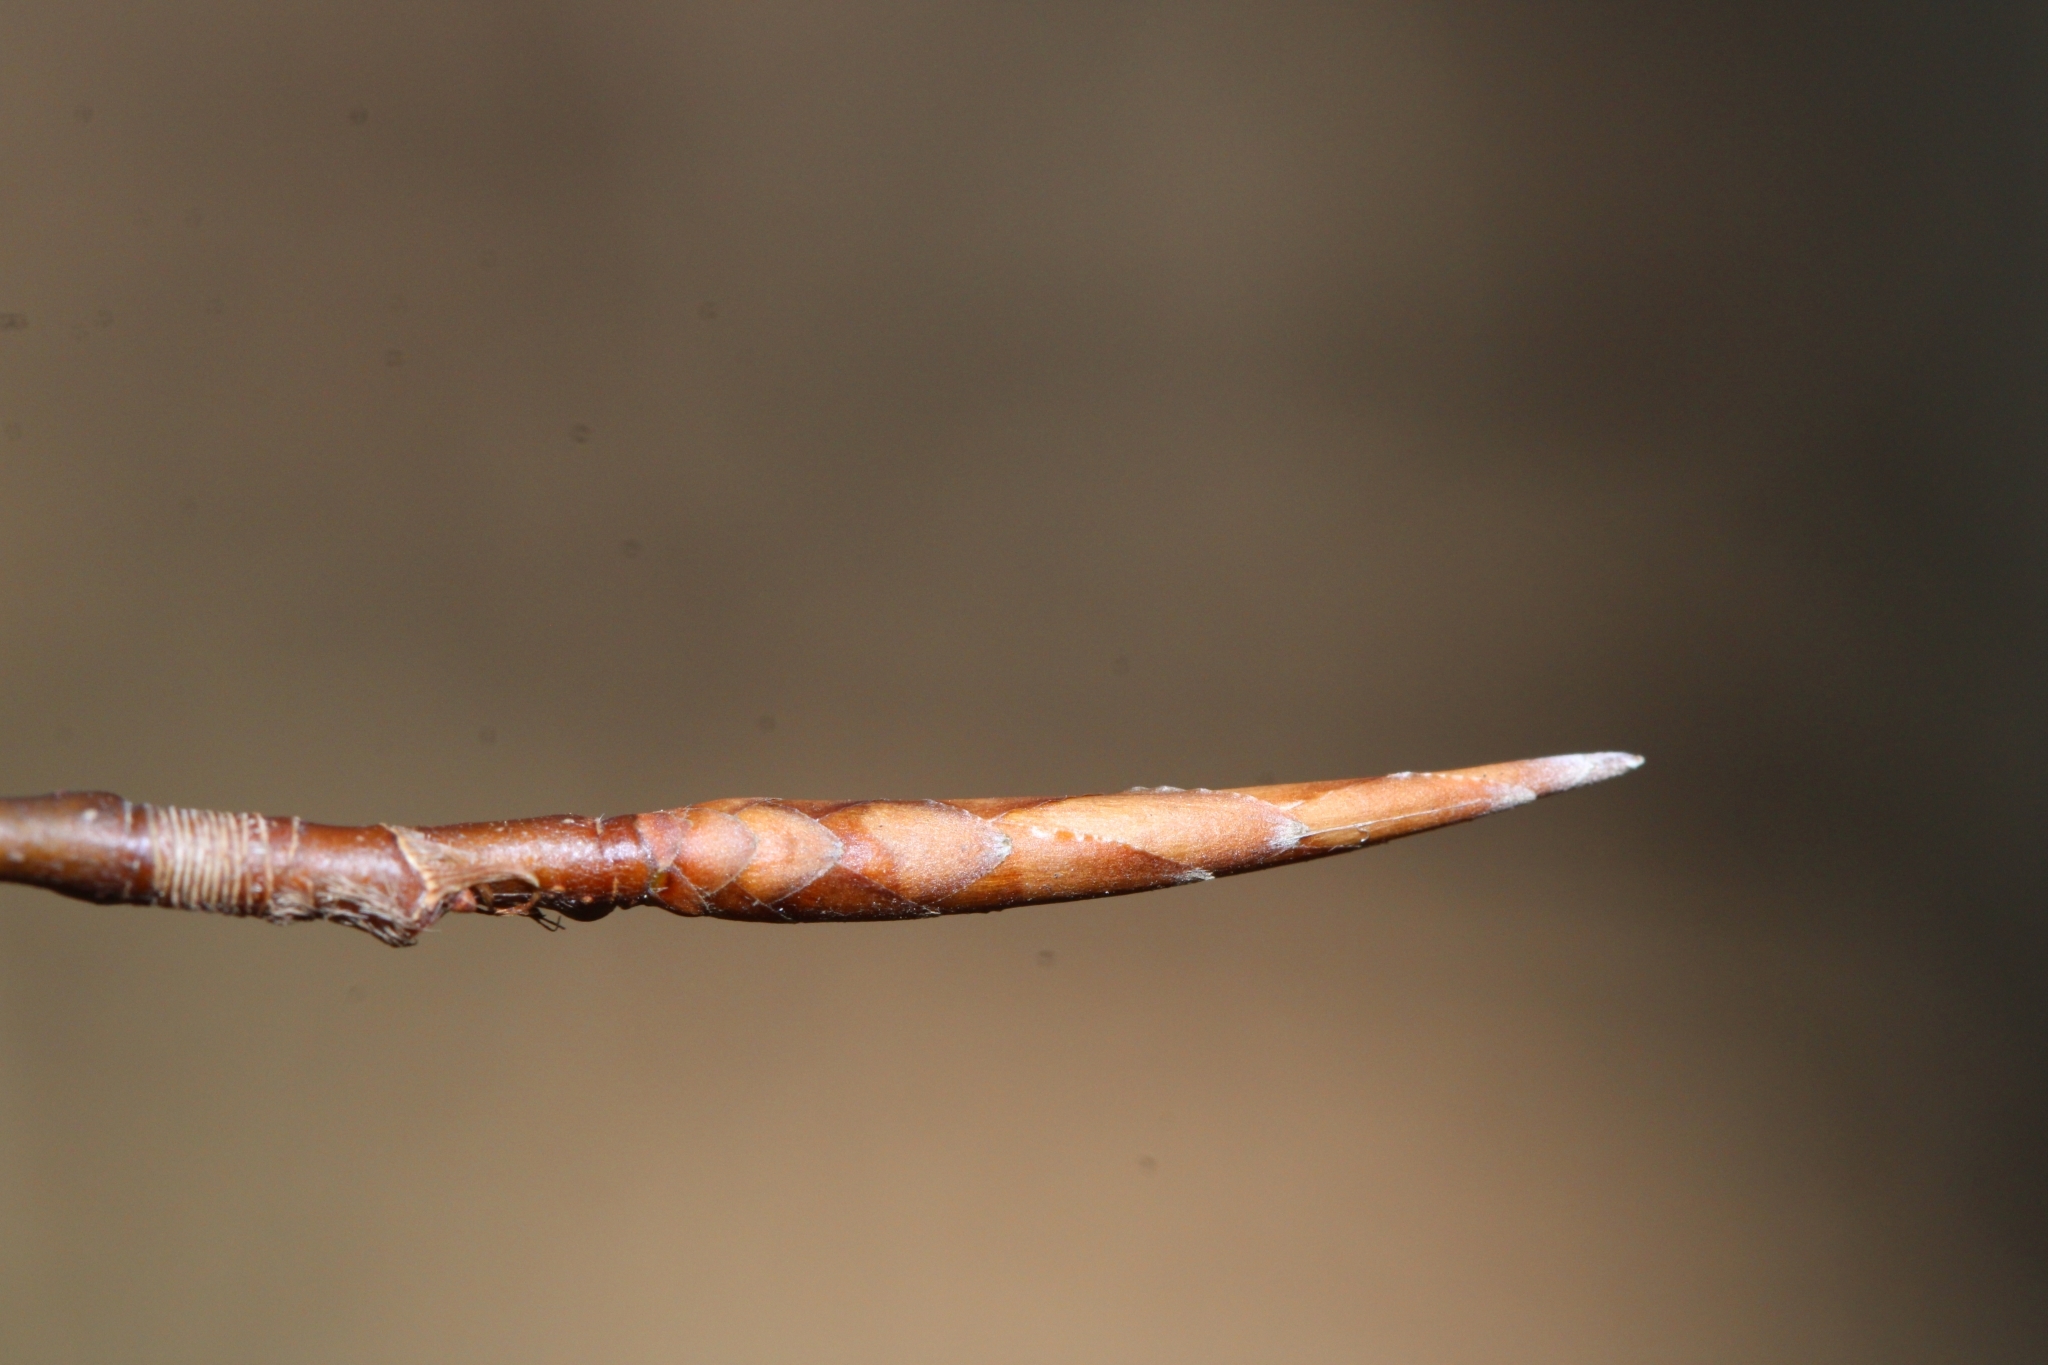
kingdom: Plantae
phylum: Tracheophyta
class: Magnoliopsida
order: Fagales
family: Fagaceae
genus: Fagus
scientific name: Fagus grandifolia
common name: American beech
